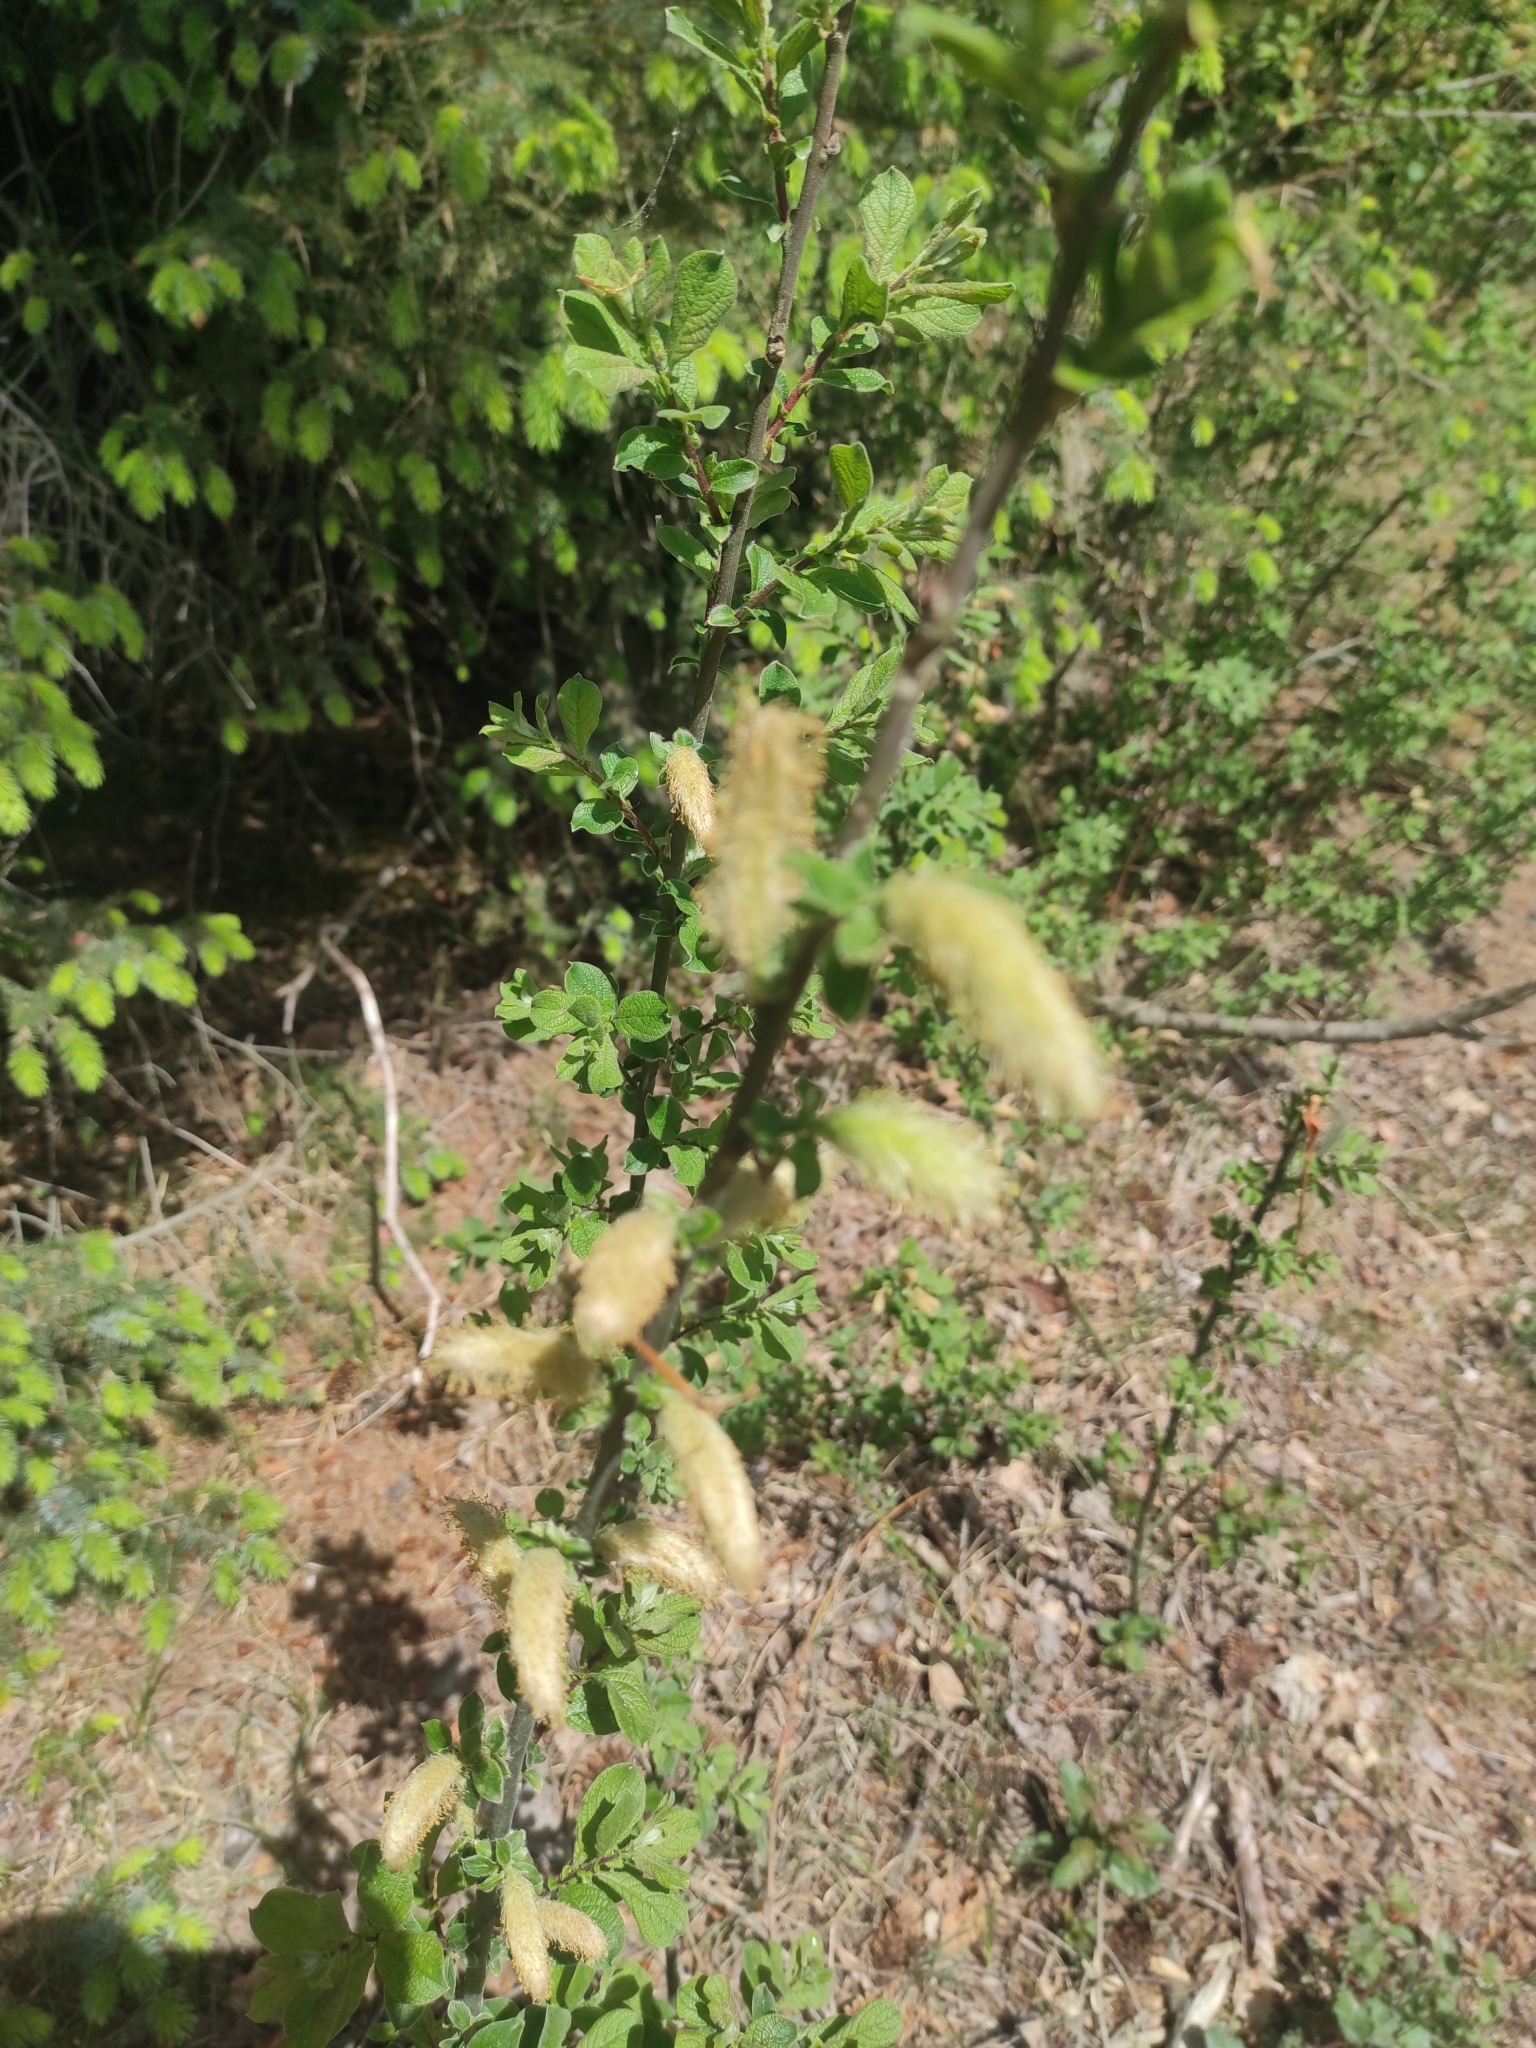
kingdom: Plantae
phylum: Tracheophyta
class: Magnoliopsida
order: Malpighiales
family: Salicaceae
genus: Salix
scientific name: Salix aurita
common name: Eared willow
